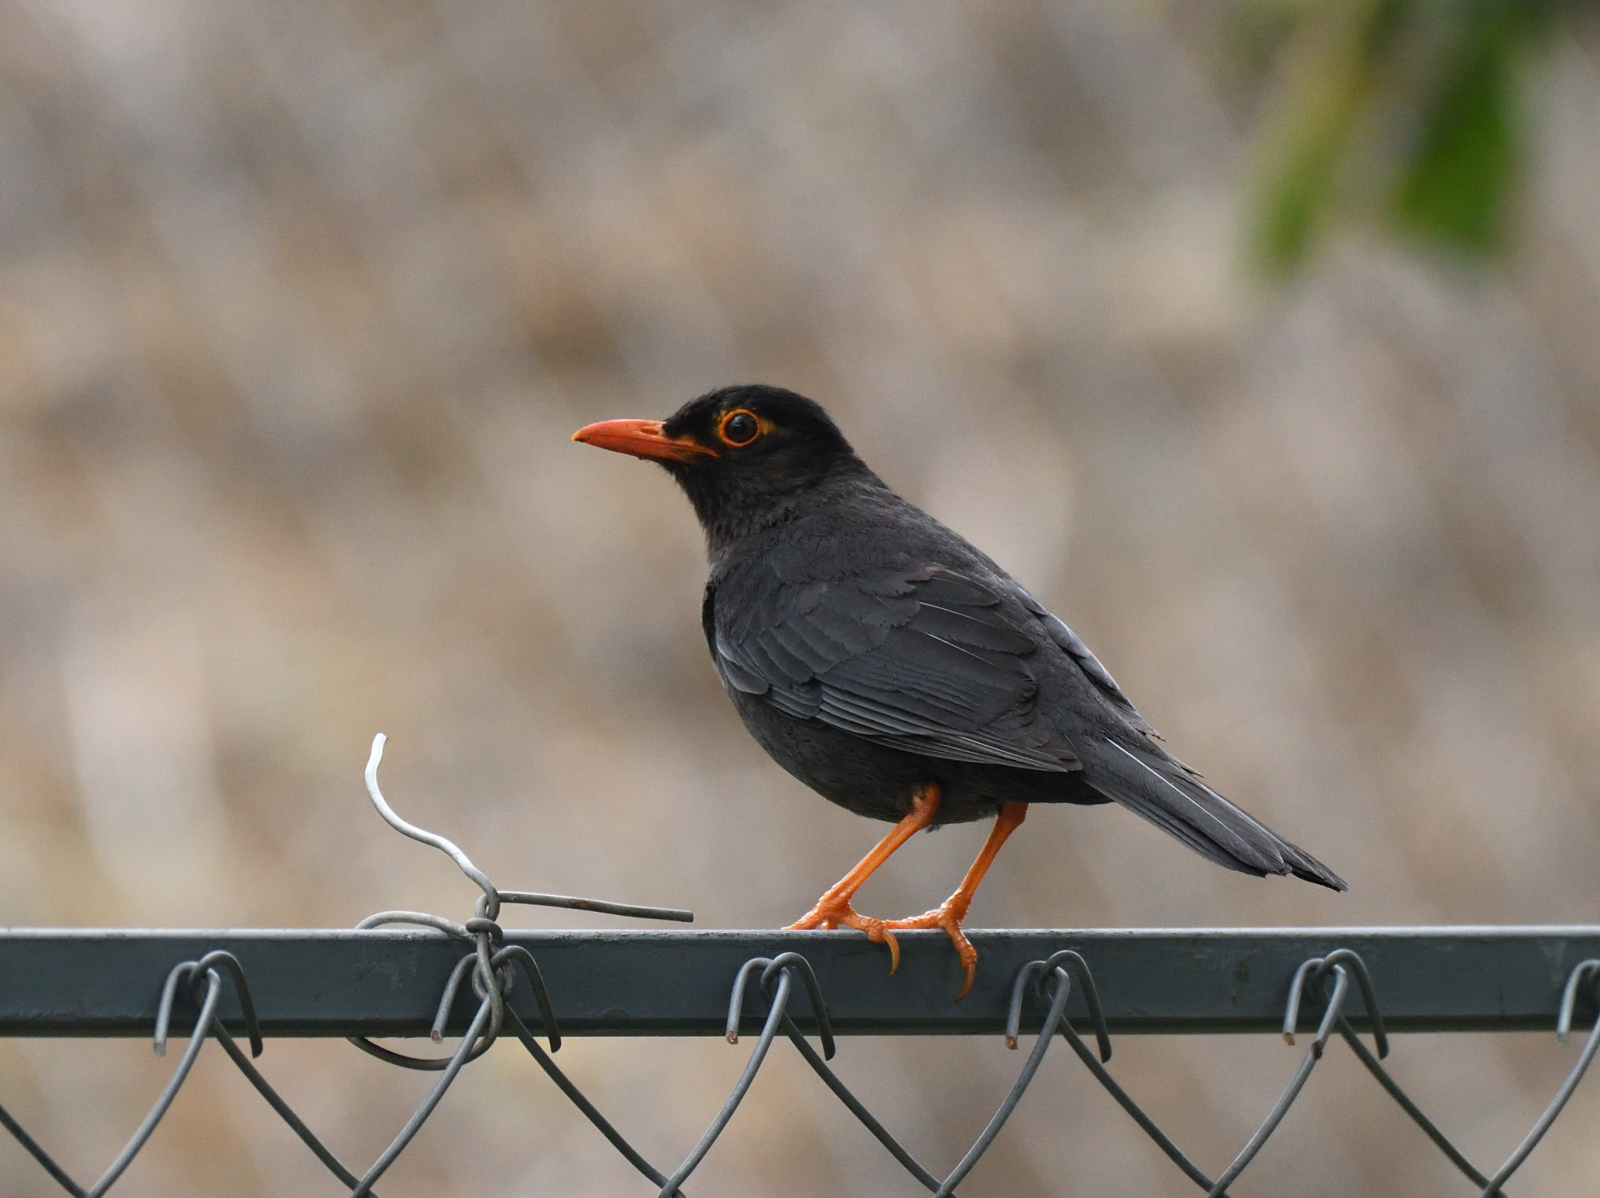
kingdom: Animalia
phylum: Chordata
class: Aves
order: Passeriformes
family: Turdidae
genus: Turdus
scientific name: Turdus simillimus
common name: Indian blackbird
